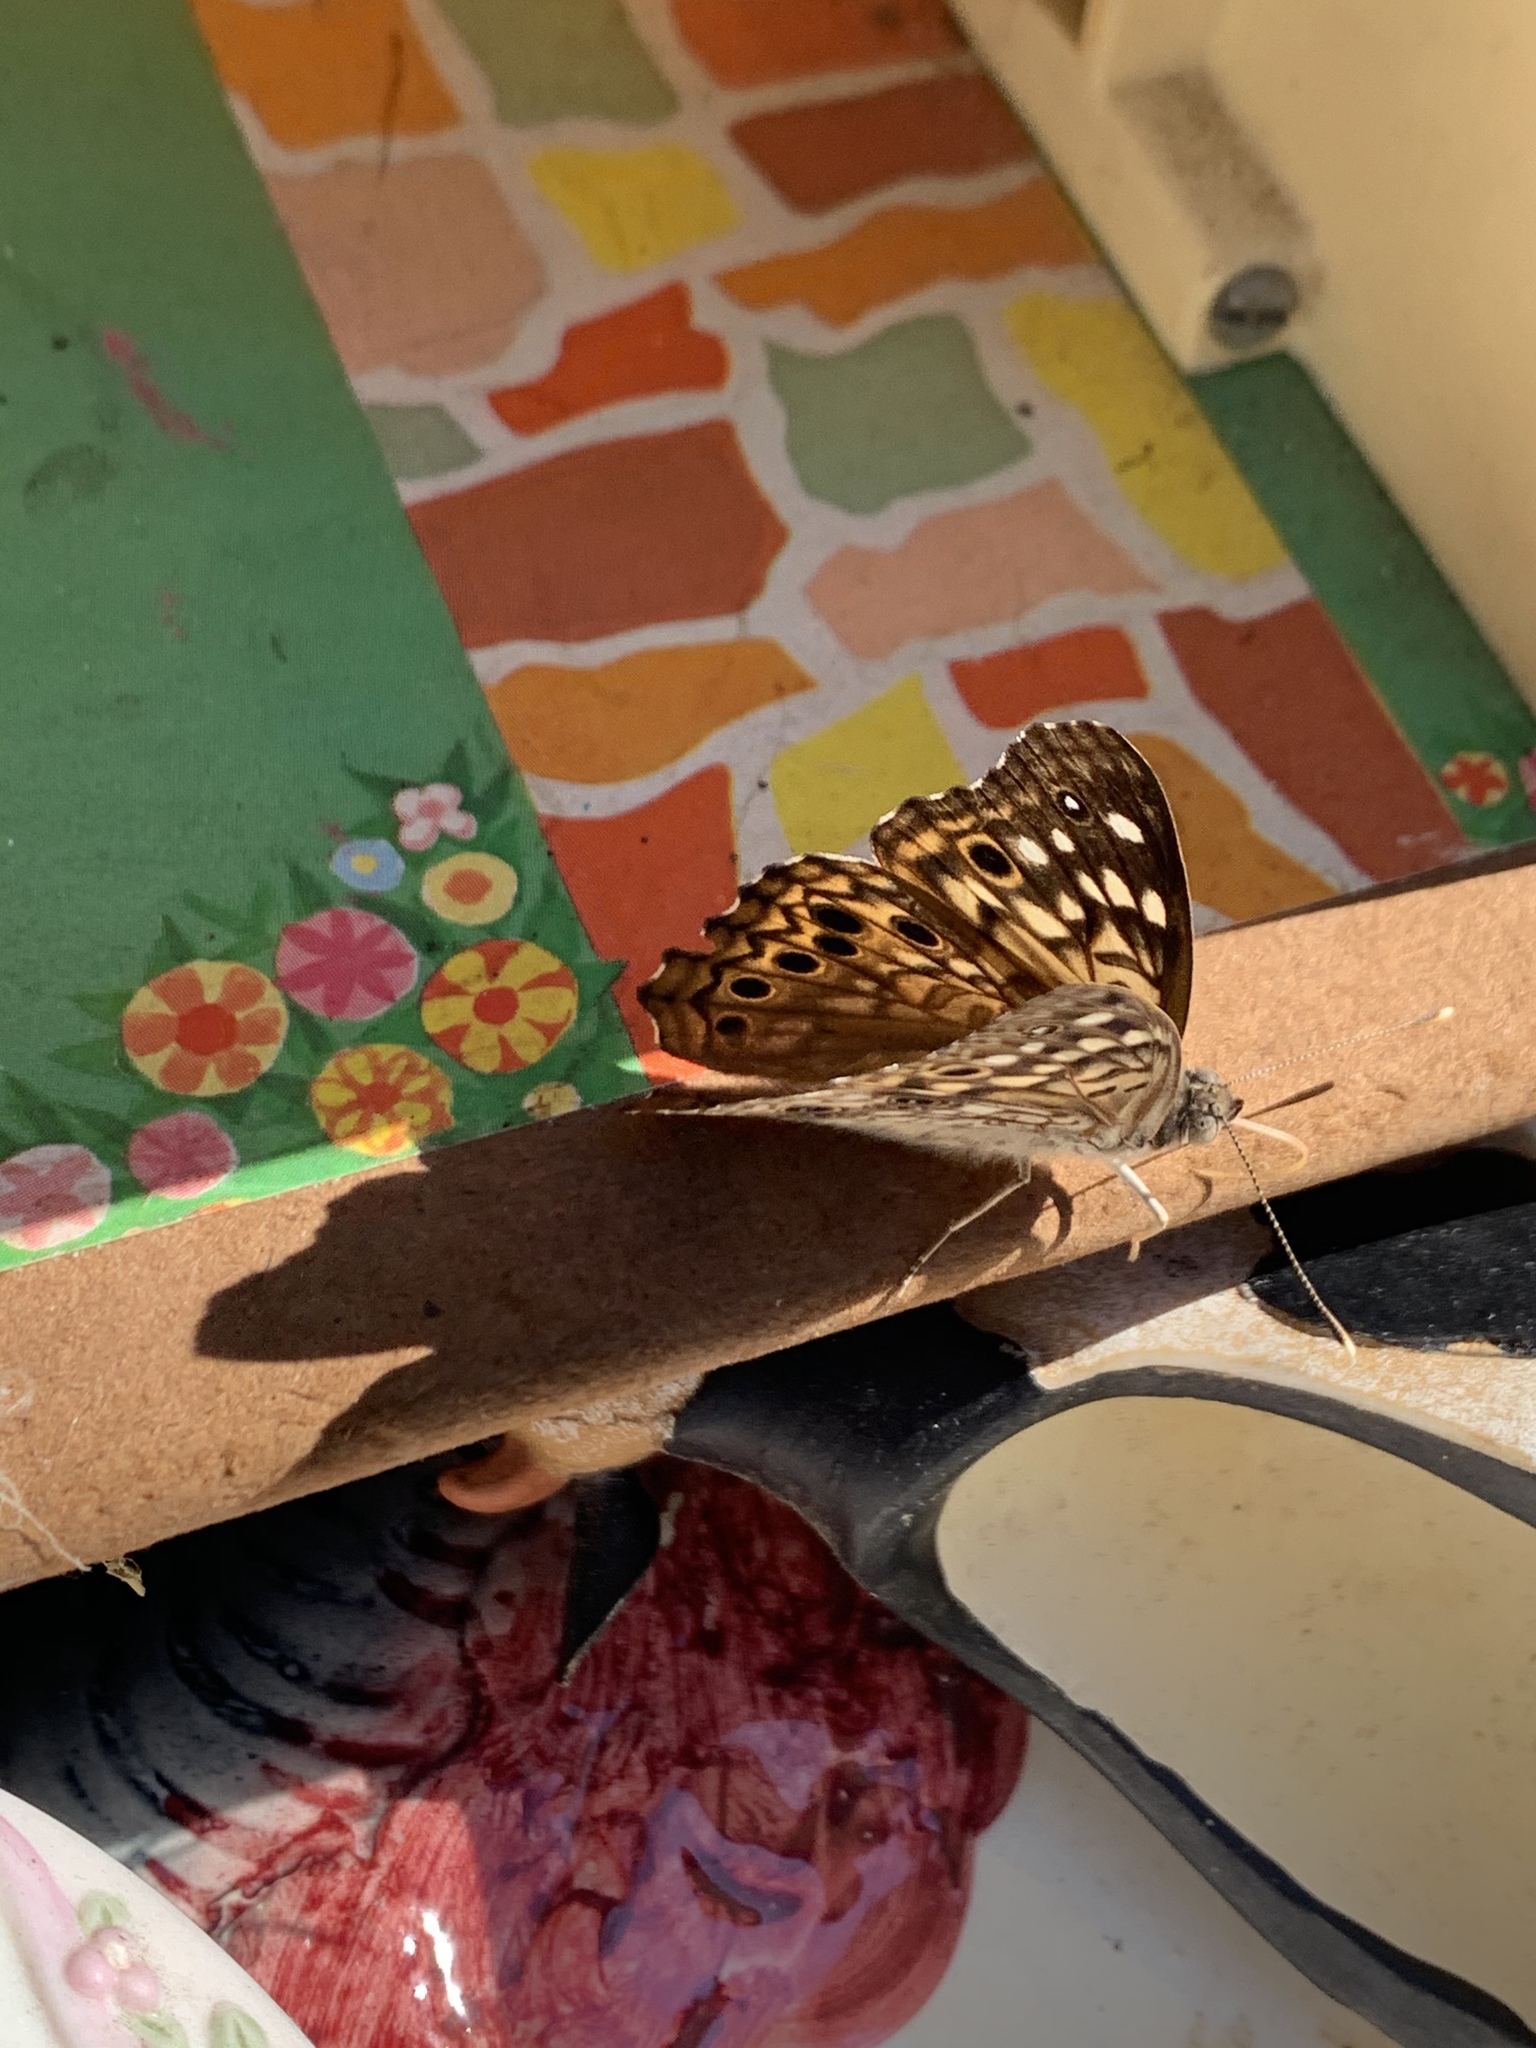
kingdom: Animalia
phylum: Arthropoda
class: Insecta
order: Lepidoptera
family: Nymphalidae
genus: Asterocampa
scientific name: Asterocampa celtis
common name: Hackberry emperor
